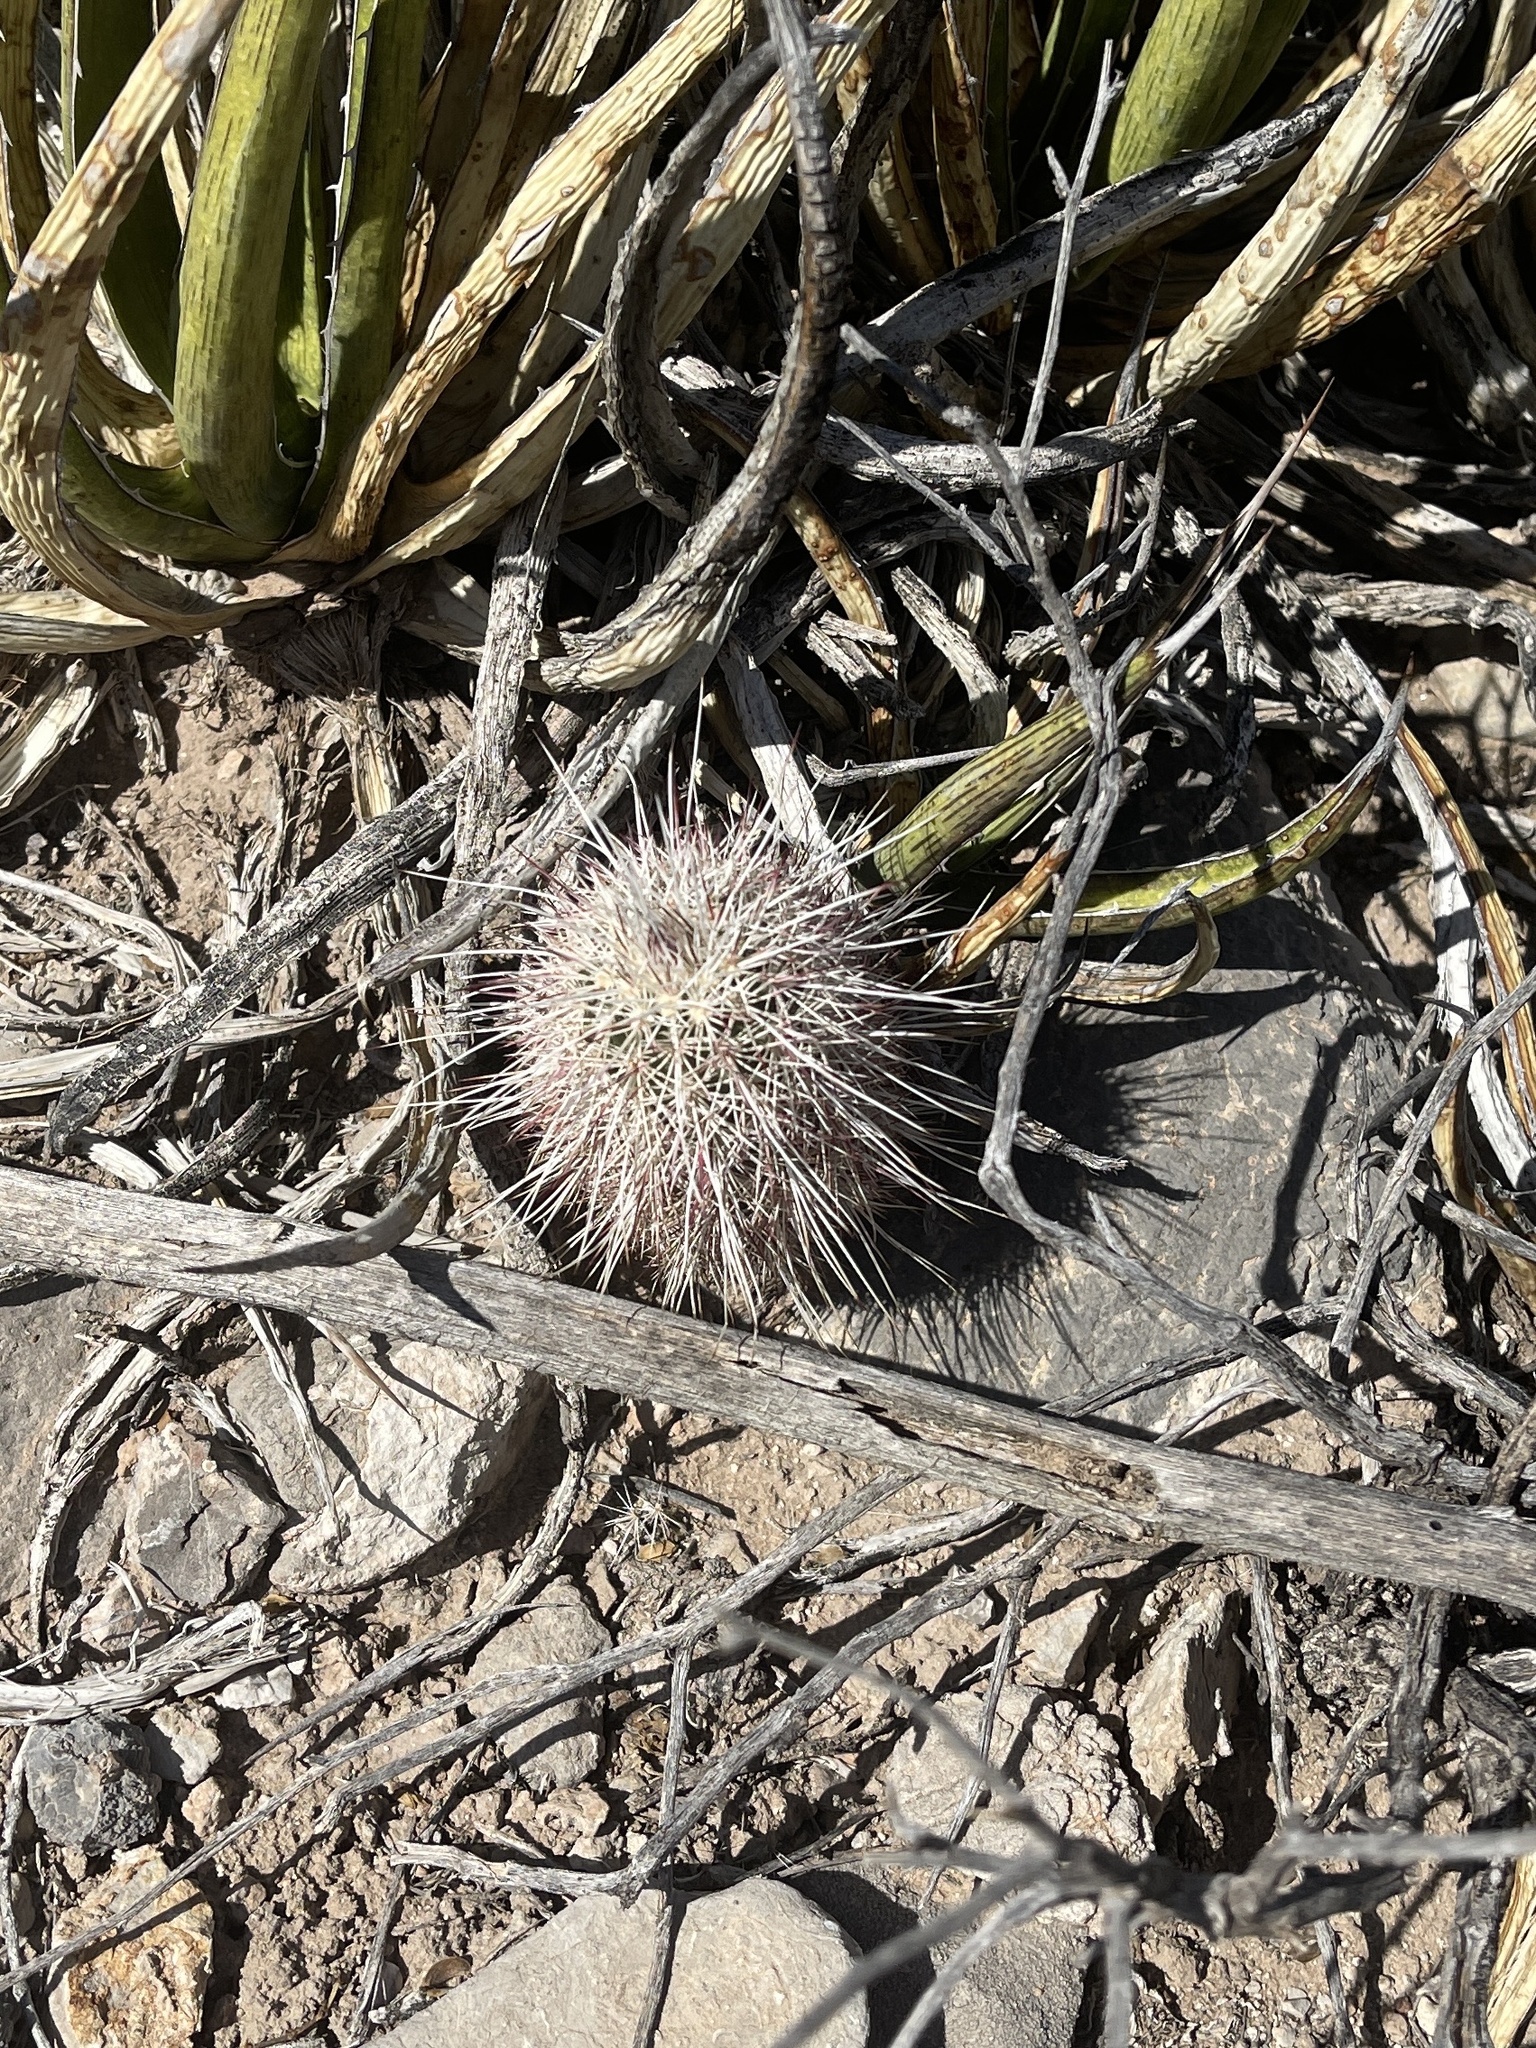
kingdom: Plantae
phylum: Tracheophyta
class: Magnoliopsida
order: Caryophyllales
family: Cactaceae
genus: Echinocereus
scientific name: Echinocereus viridiflorus
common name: Nylon hedgehog cactus
